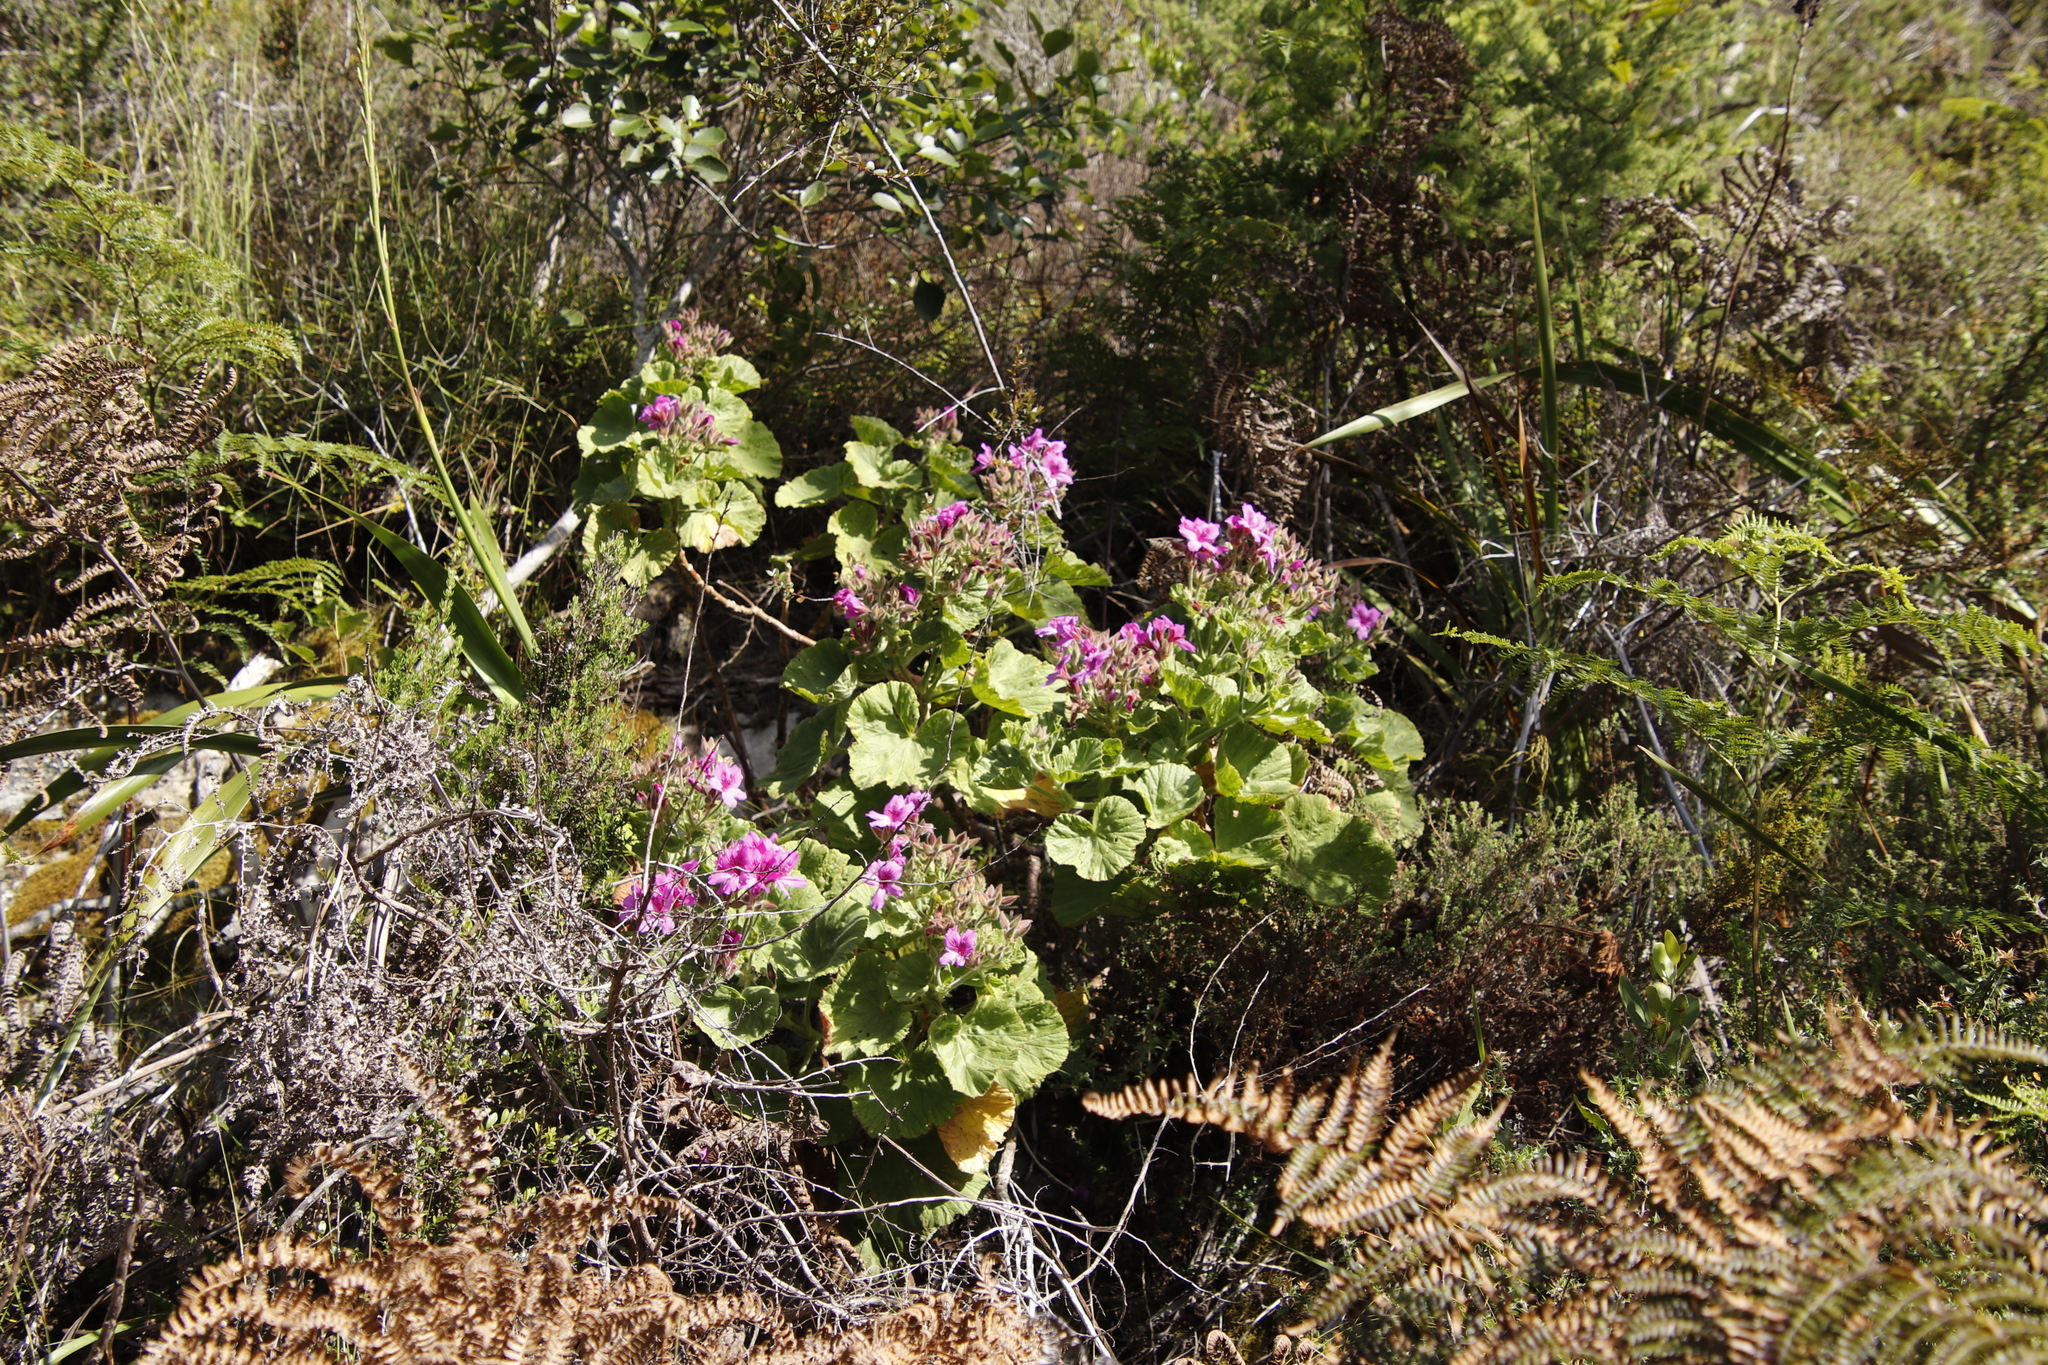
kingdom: Plantae
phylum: Tracheophyta
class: Magnoliopsida
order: Geraniales
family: Geraniaceae
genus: Pelargonium
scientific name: Pelargonium cucullatum
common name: Tree pelargonium
